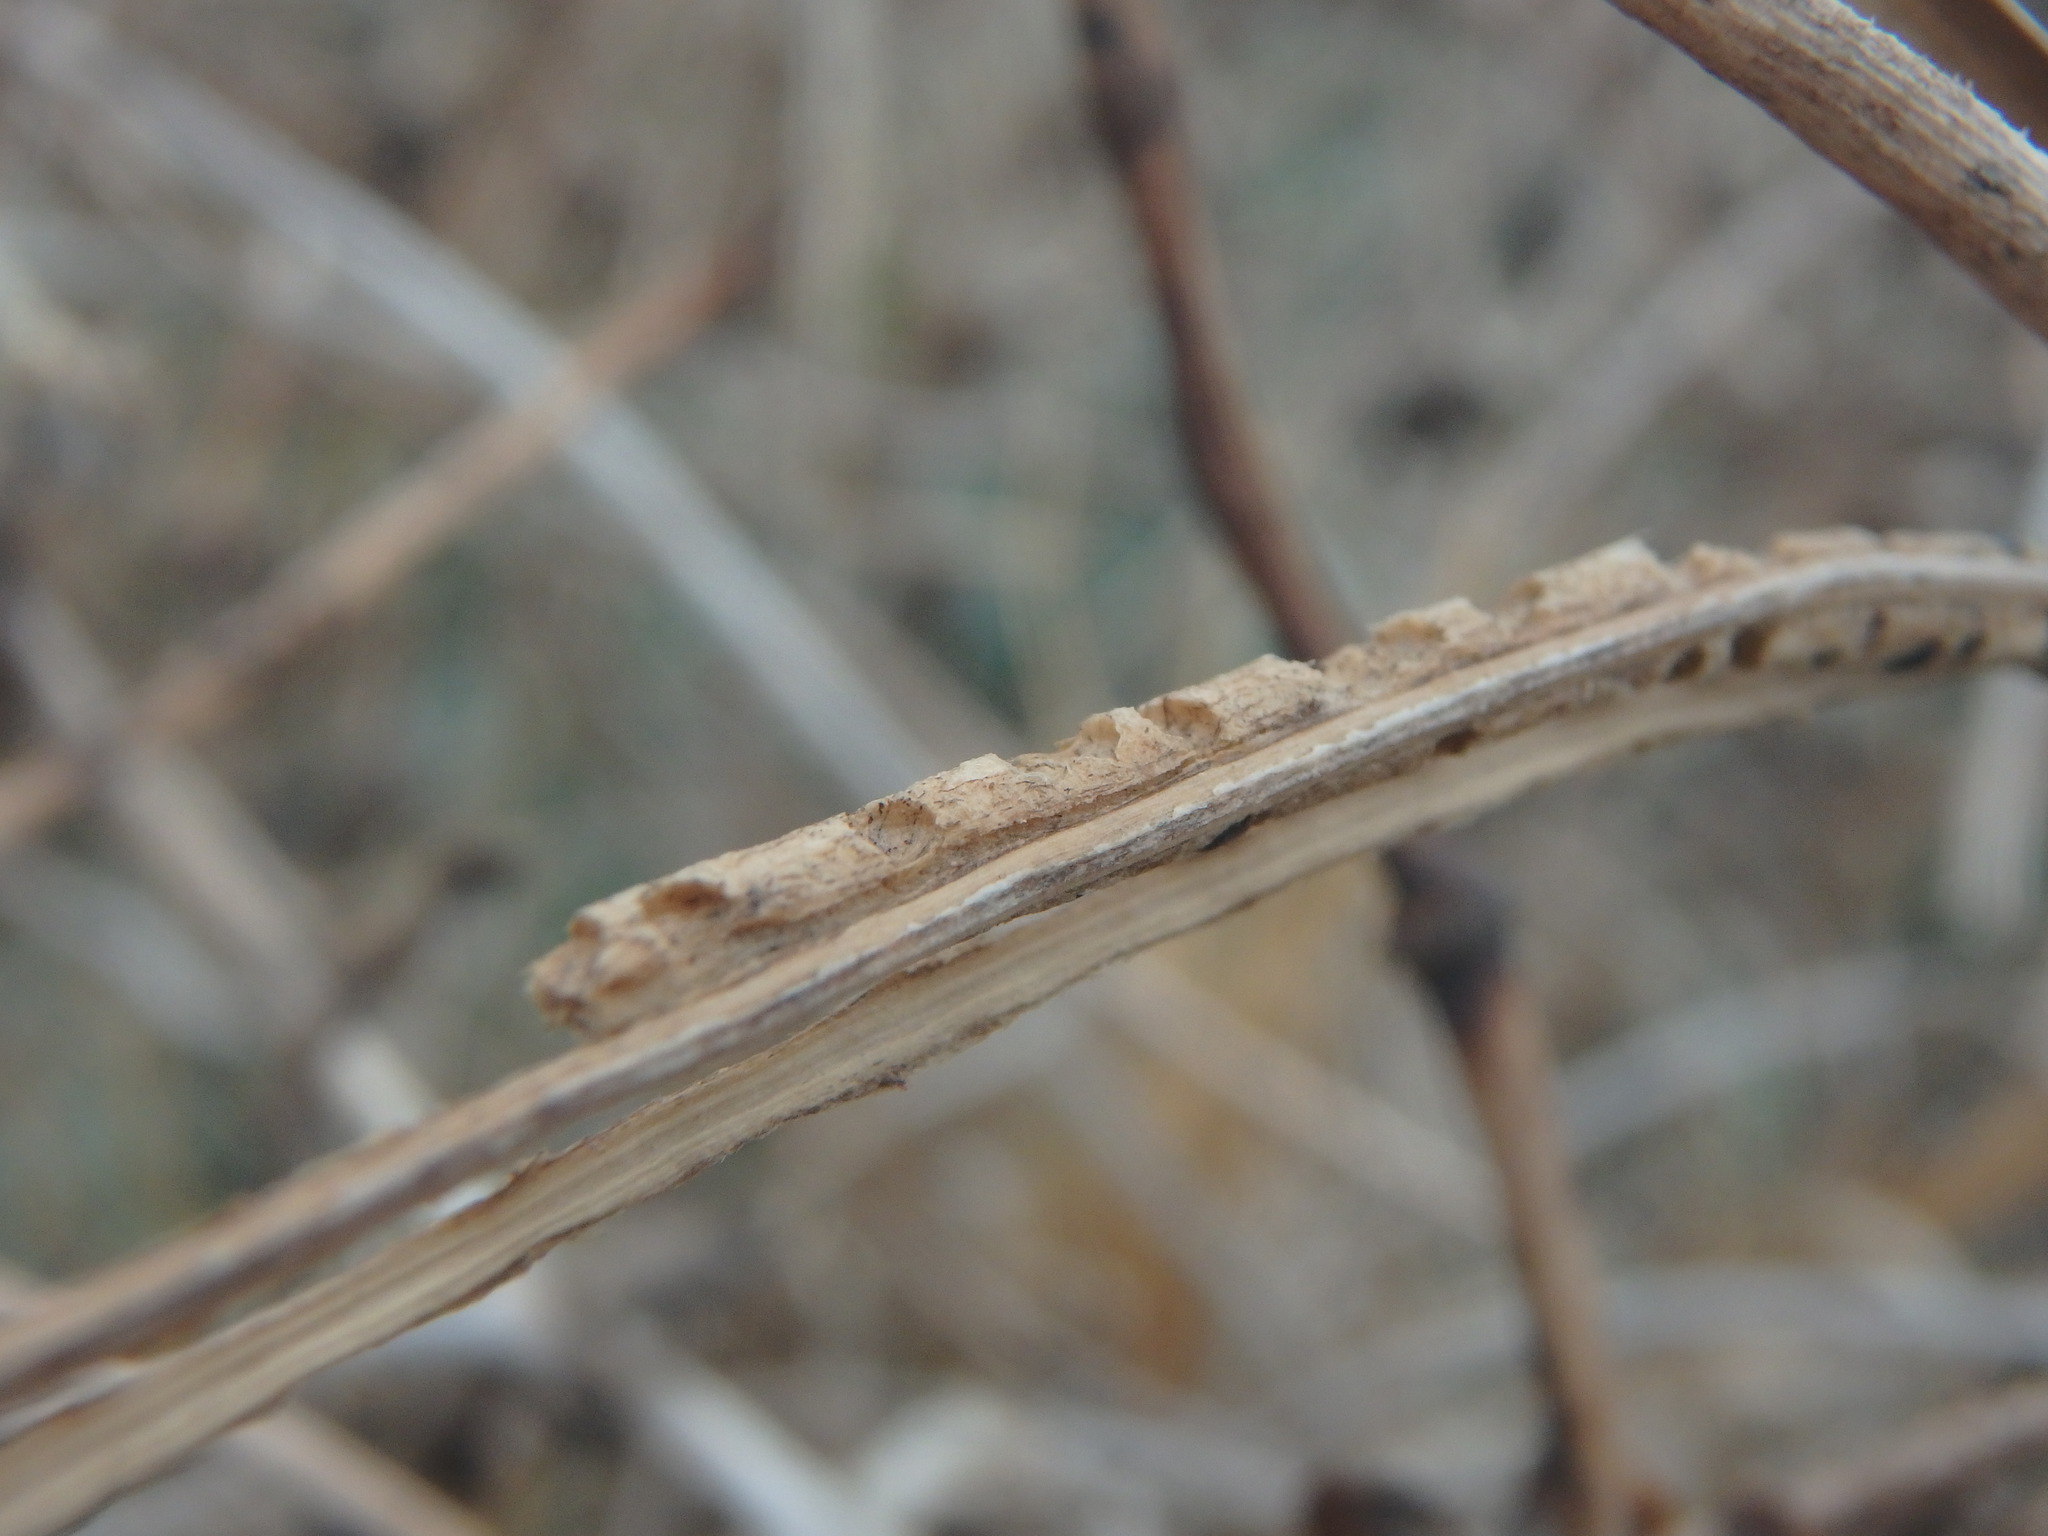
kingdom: Plantae
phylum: Tracheophyta
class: Magnoliopsida
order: Ranunculales
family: Papaveraceae
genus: Glaucium
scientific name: Glaucium flavum
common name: Yellow horned-poppy
